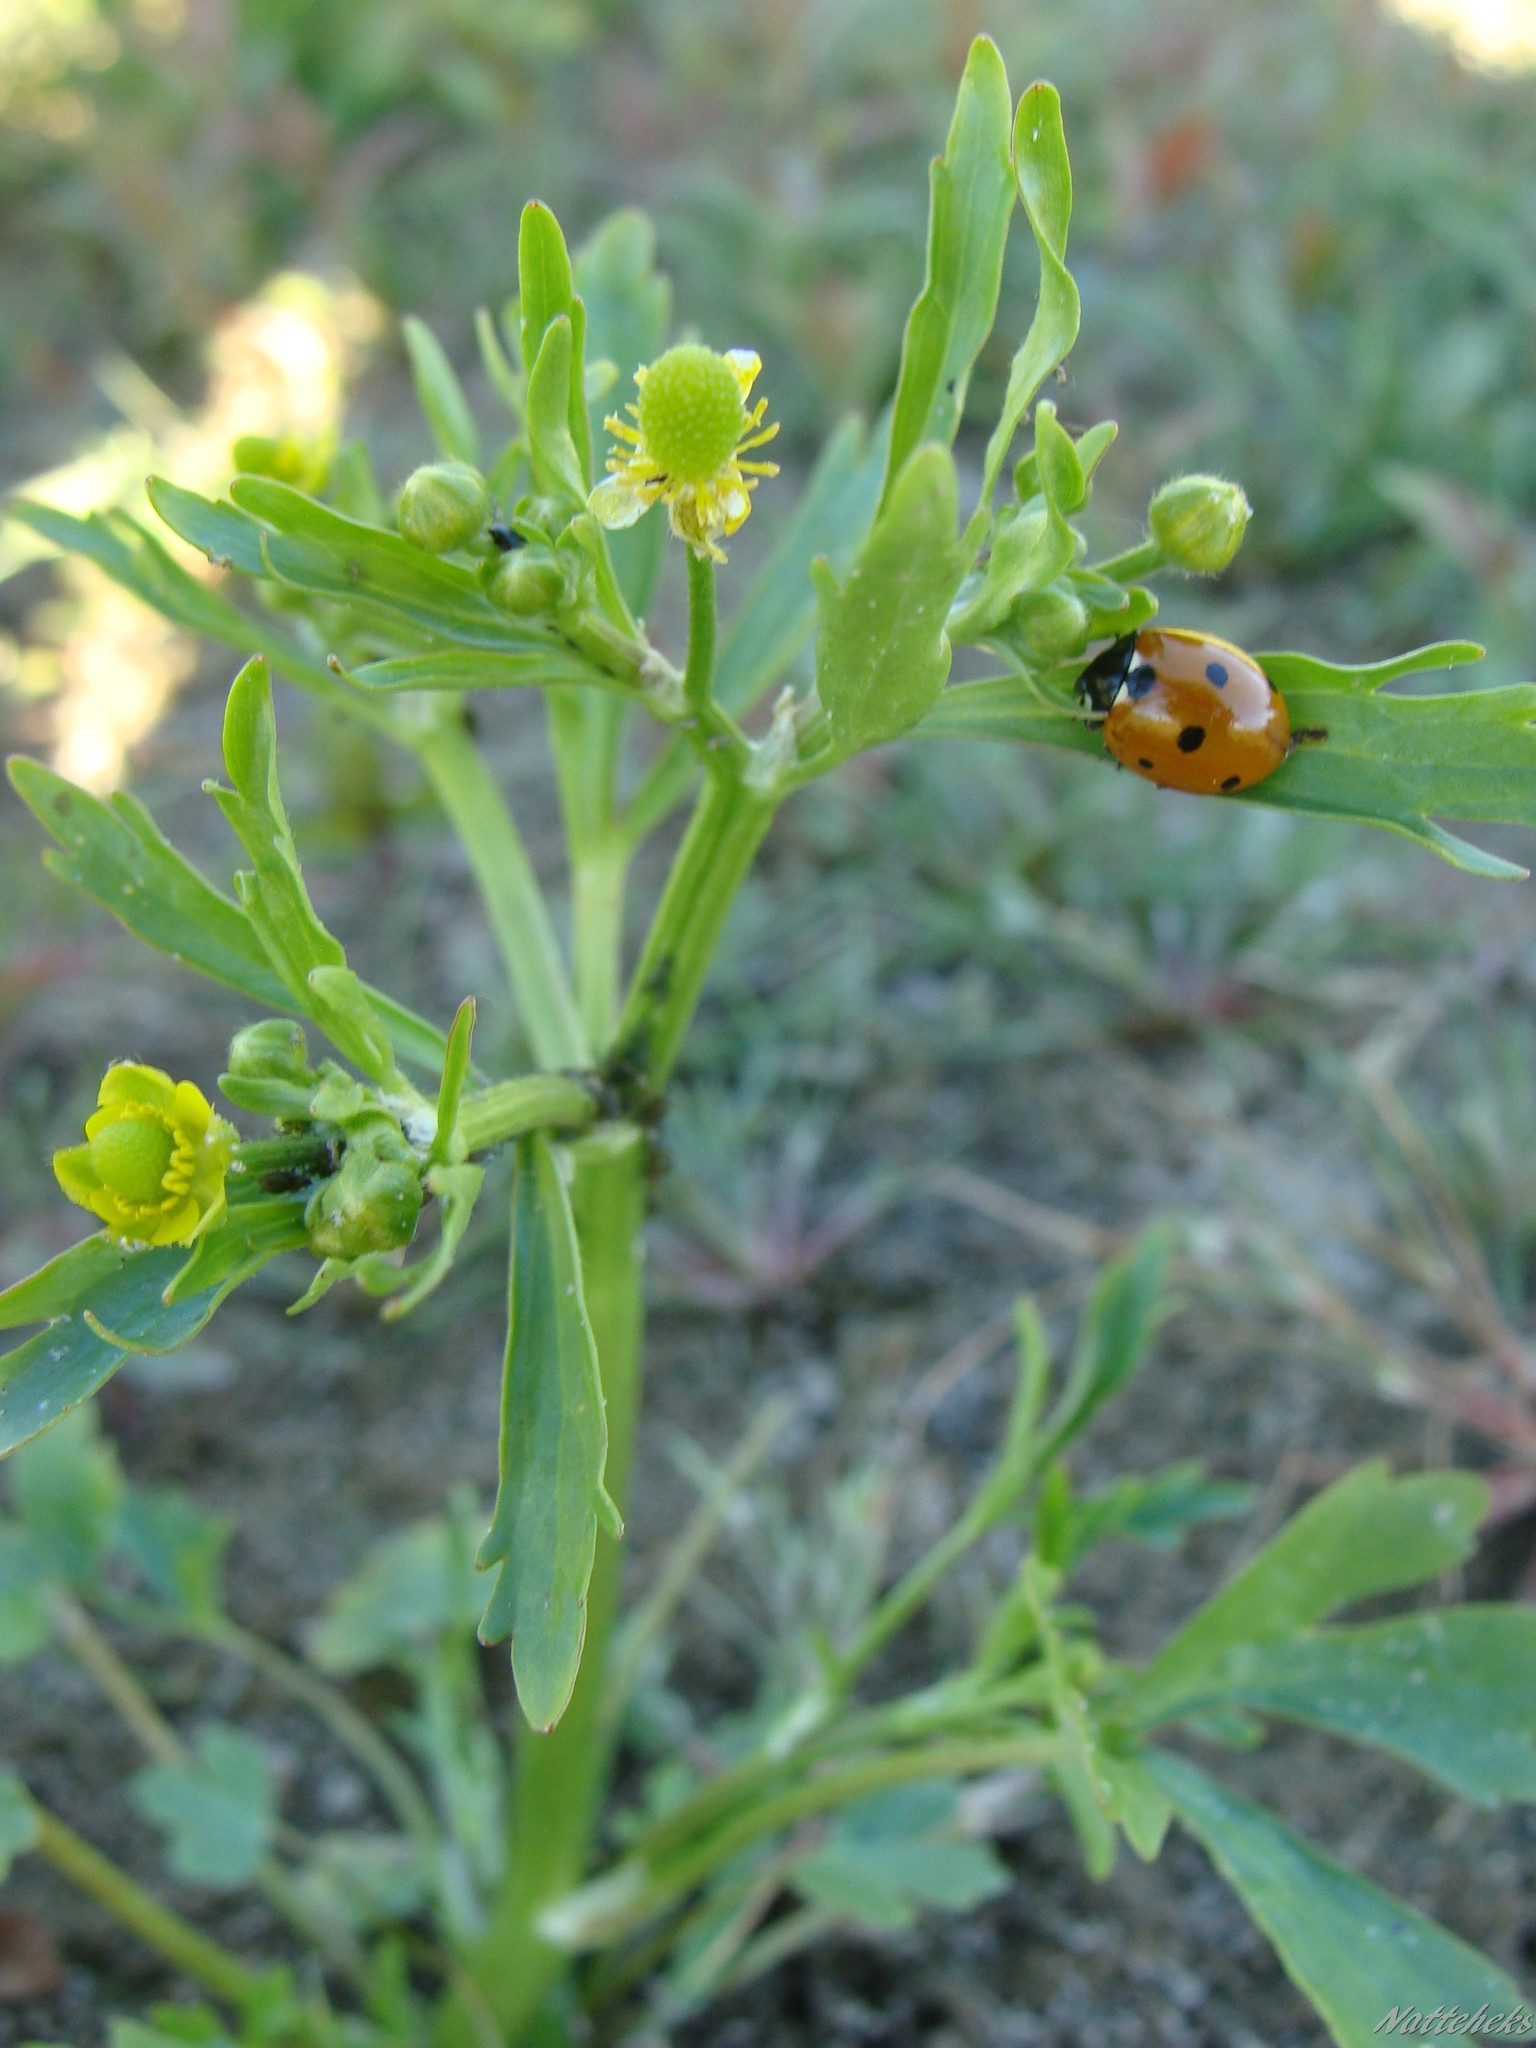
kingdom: Animalia
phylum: Arthropoda
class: Insecta
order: Coleoptera
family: Coccinellidae
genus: Coccinella
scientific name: Coccinella septempunctata
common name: Sevenspotted lady beetle
